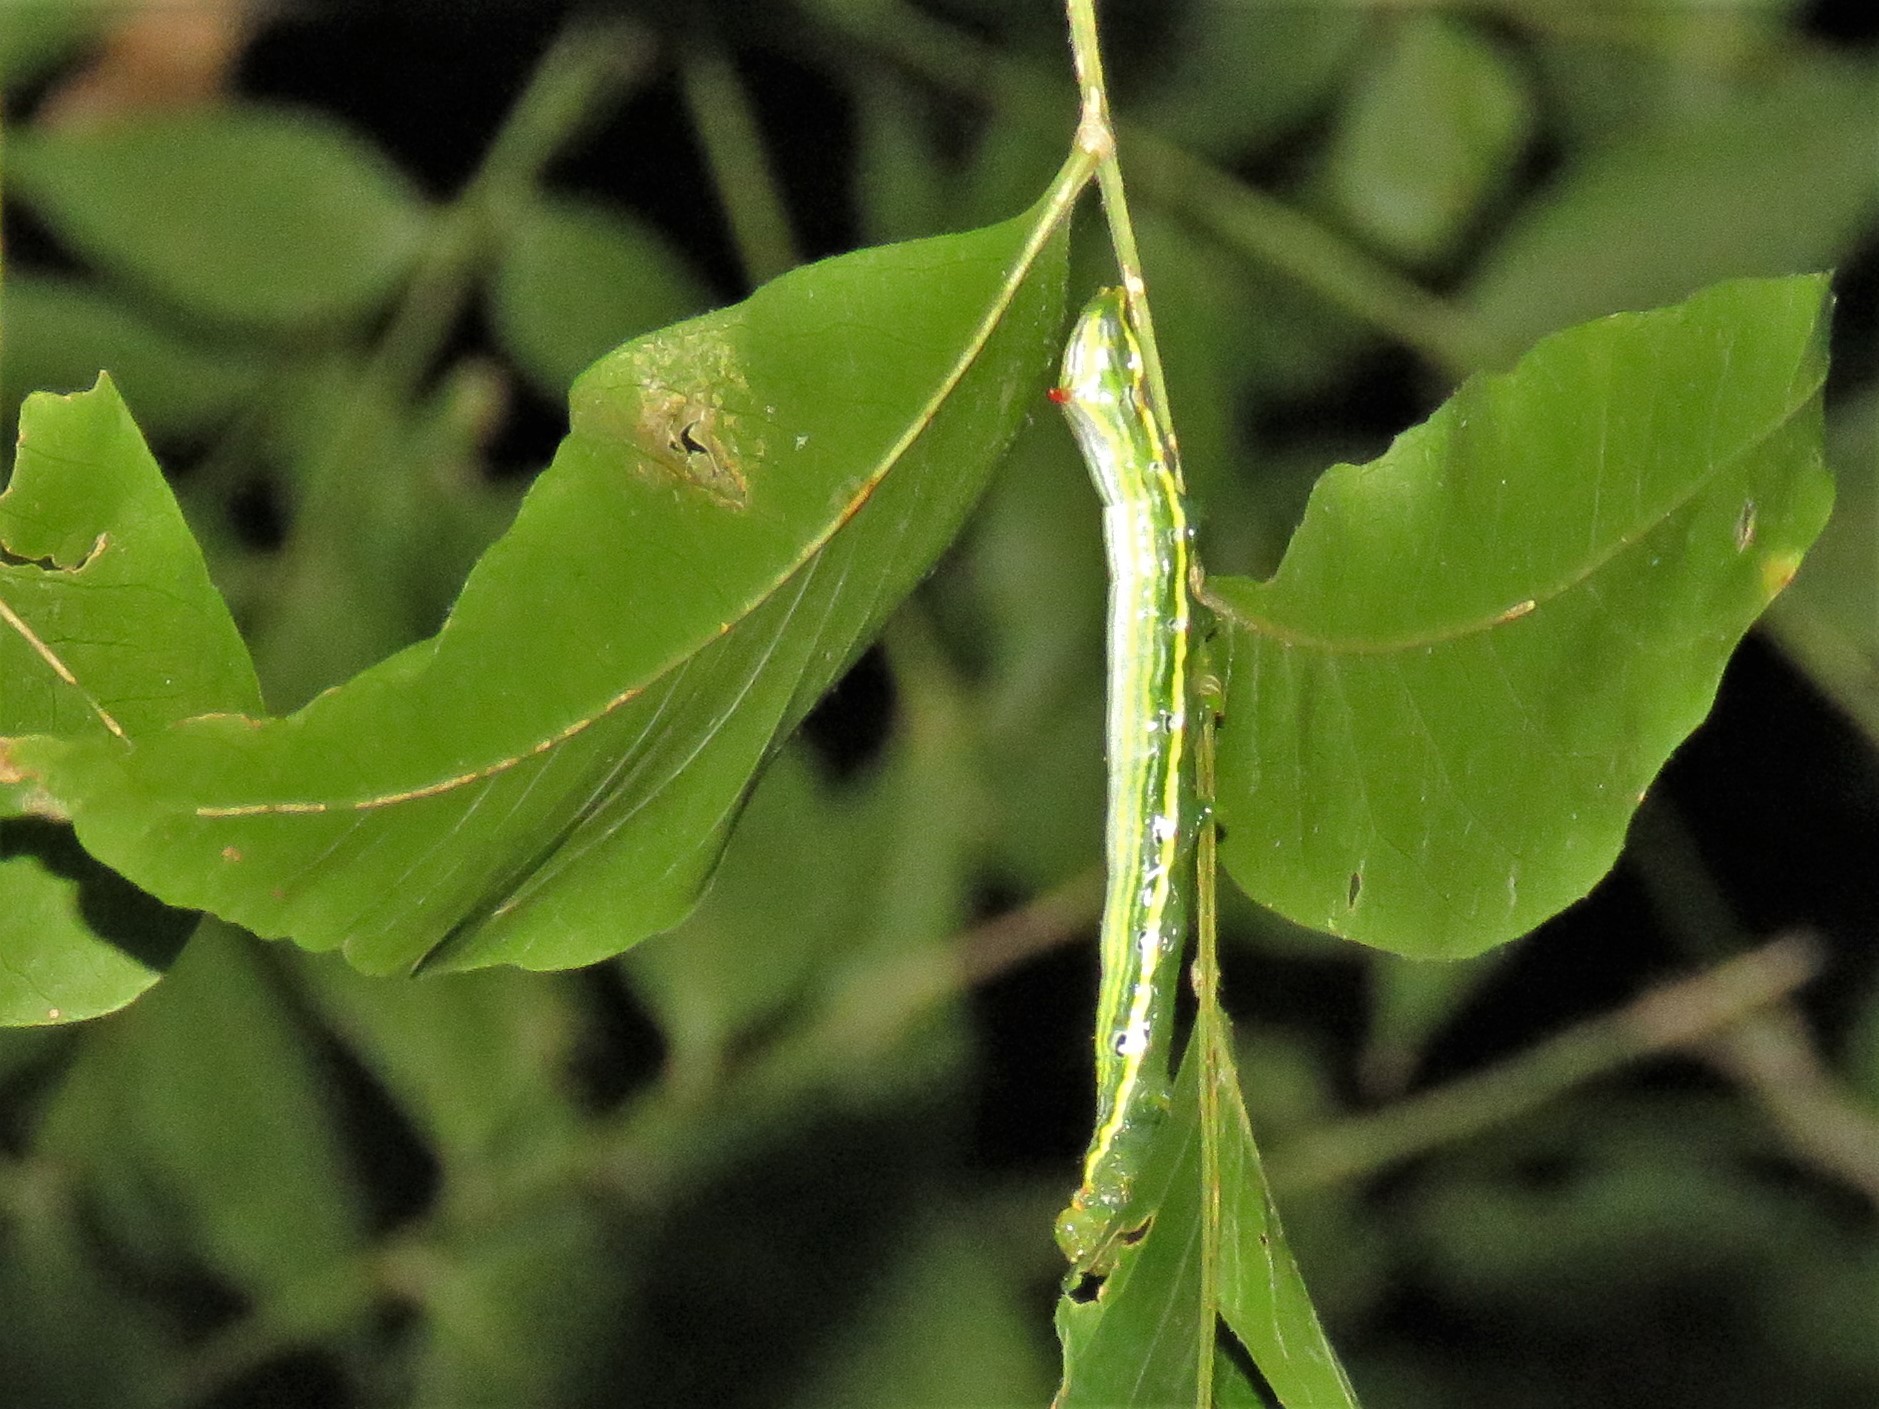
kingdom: Animalia
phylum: Arthropoda
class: Insecta
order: Lepidoptera
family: Notodontidae
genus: Elasmia
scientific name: Elasmia packardii
